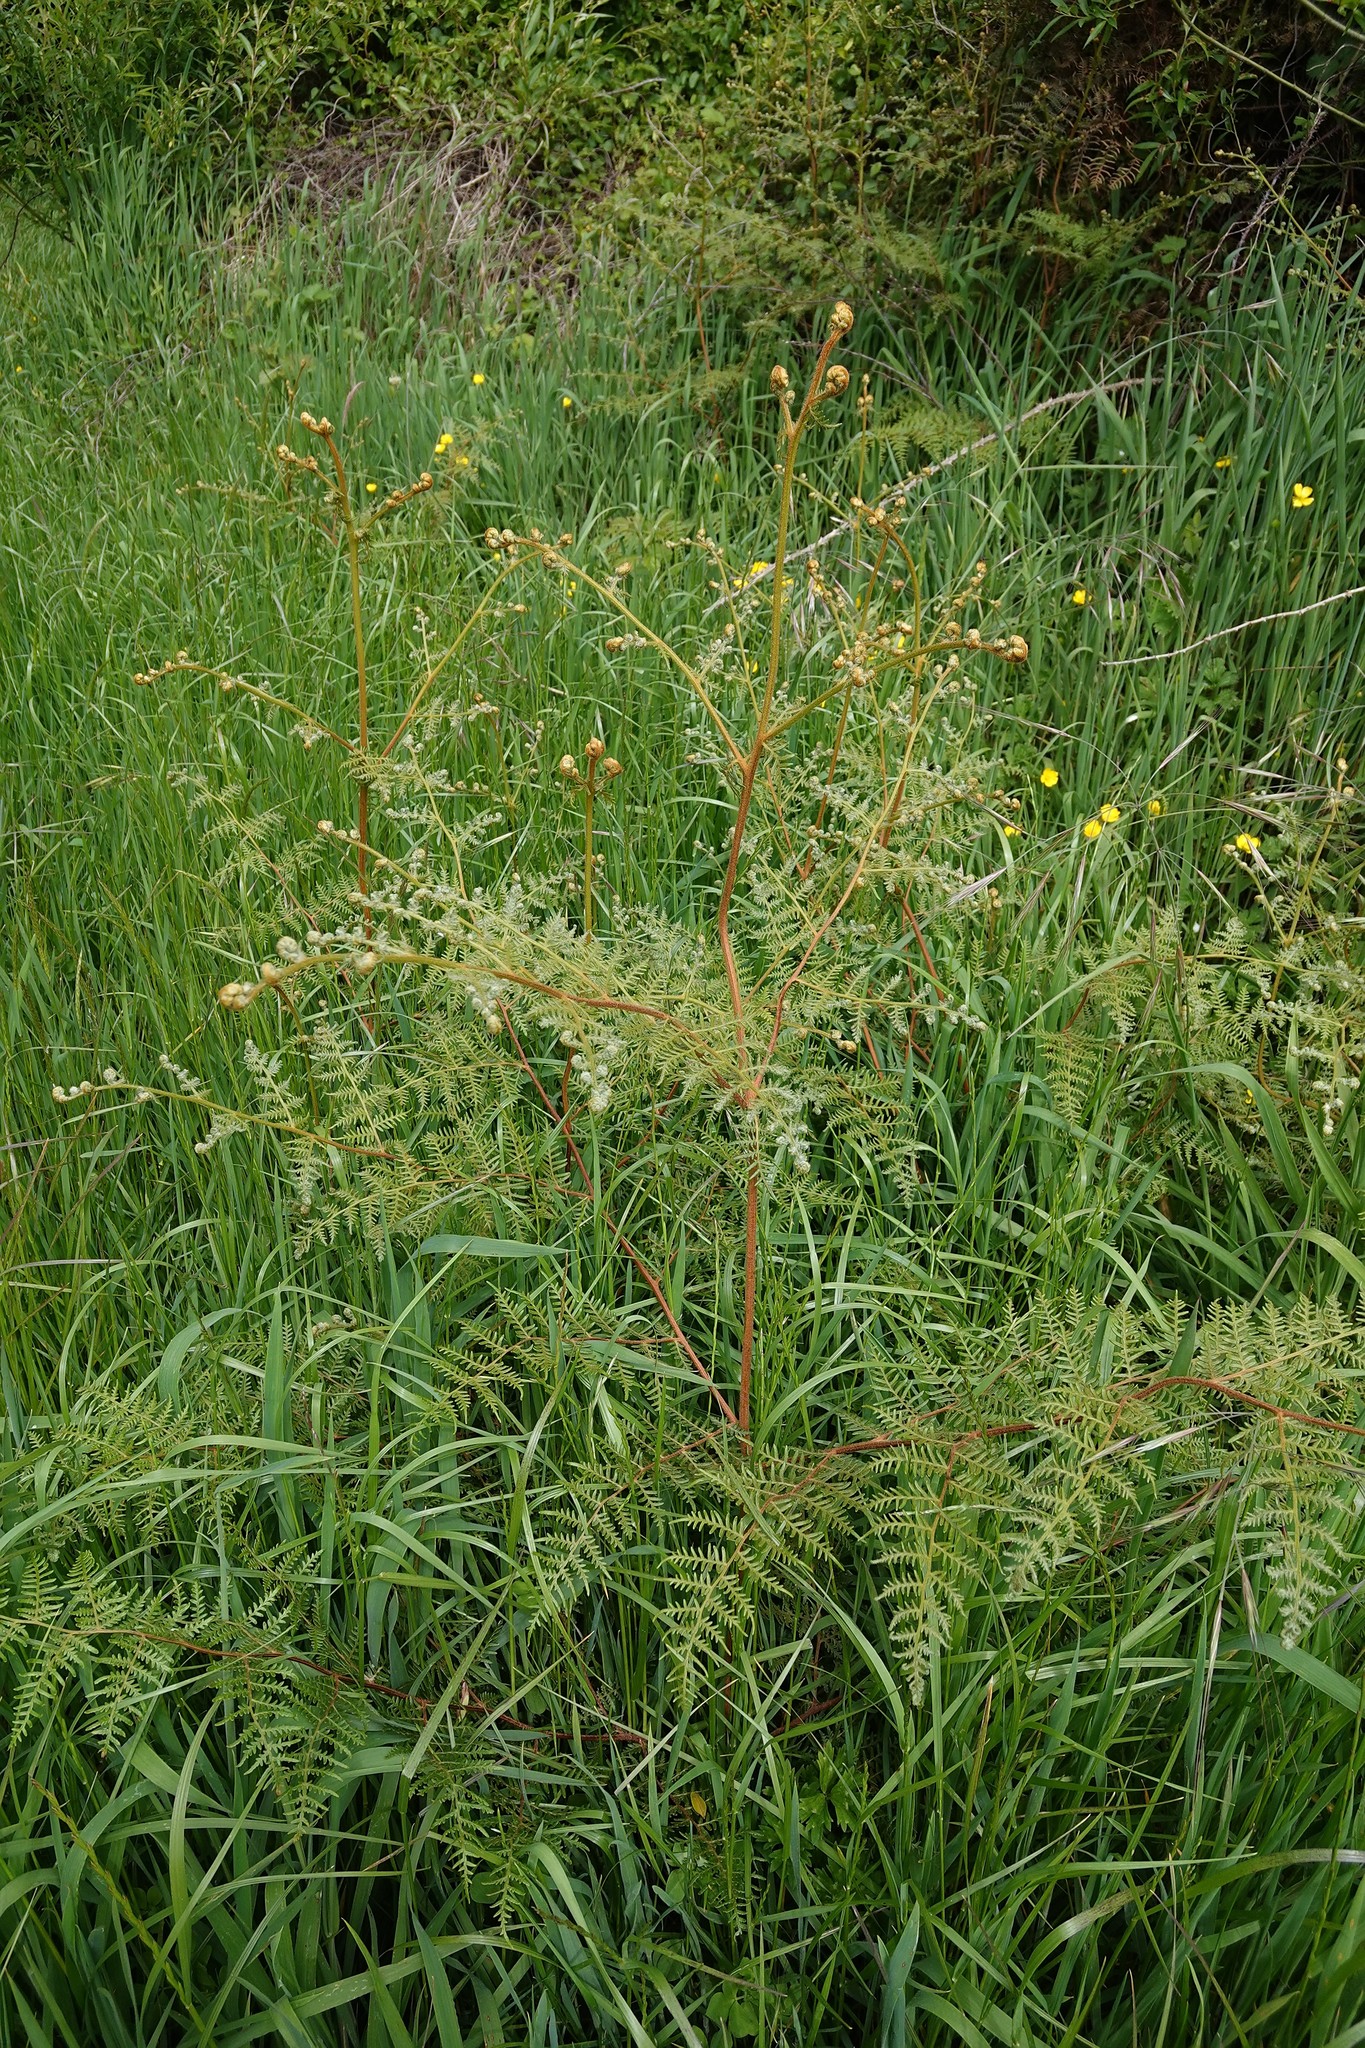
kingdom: Plantae
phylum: Tracheophyta
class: Polypodiopsida
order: Polypodiales
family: Dennstaedtiaceae
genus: Pteridium
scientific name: Pteridium esculentum
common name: Bracken fern
